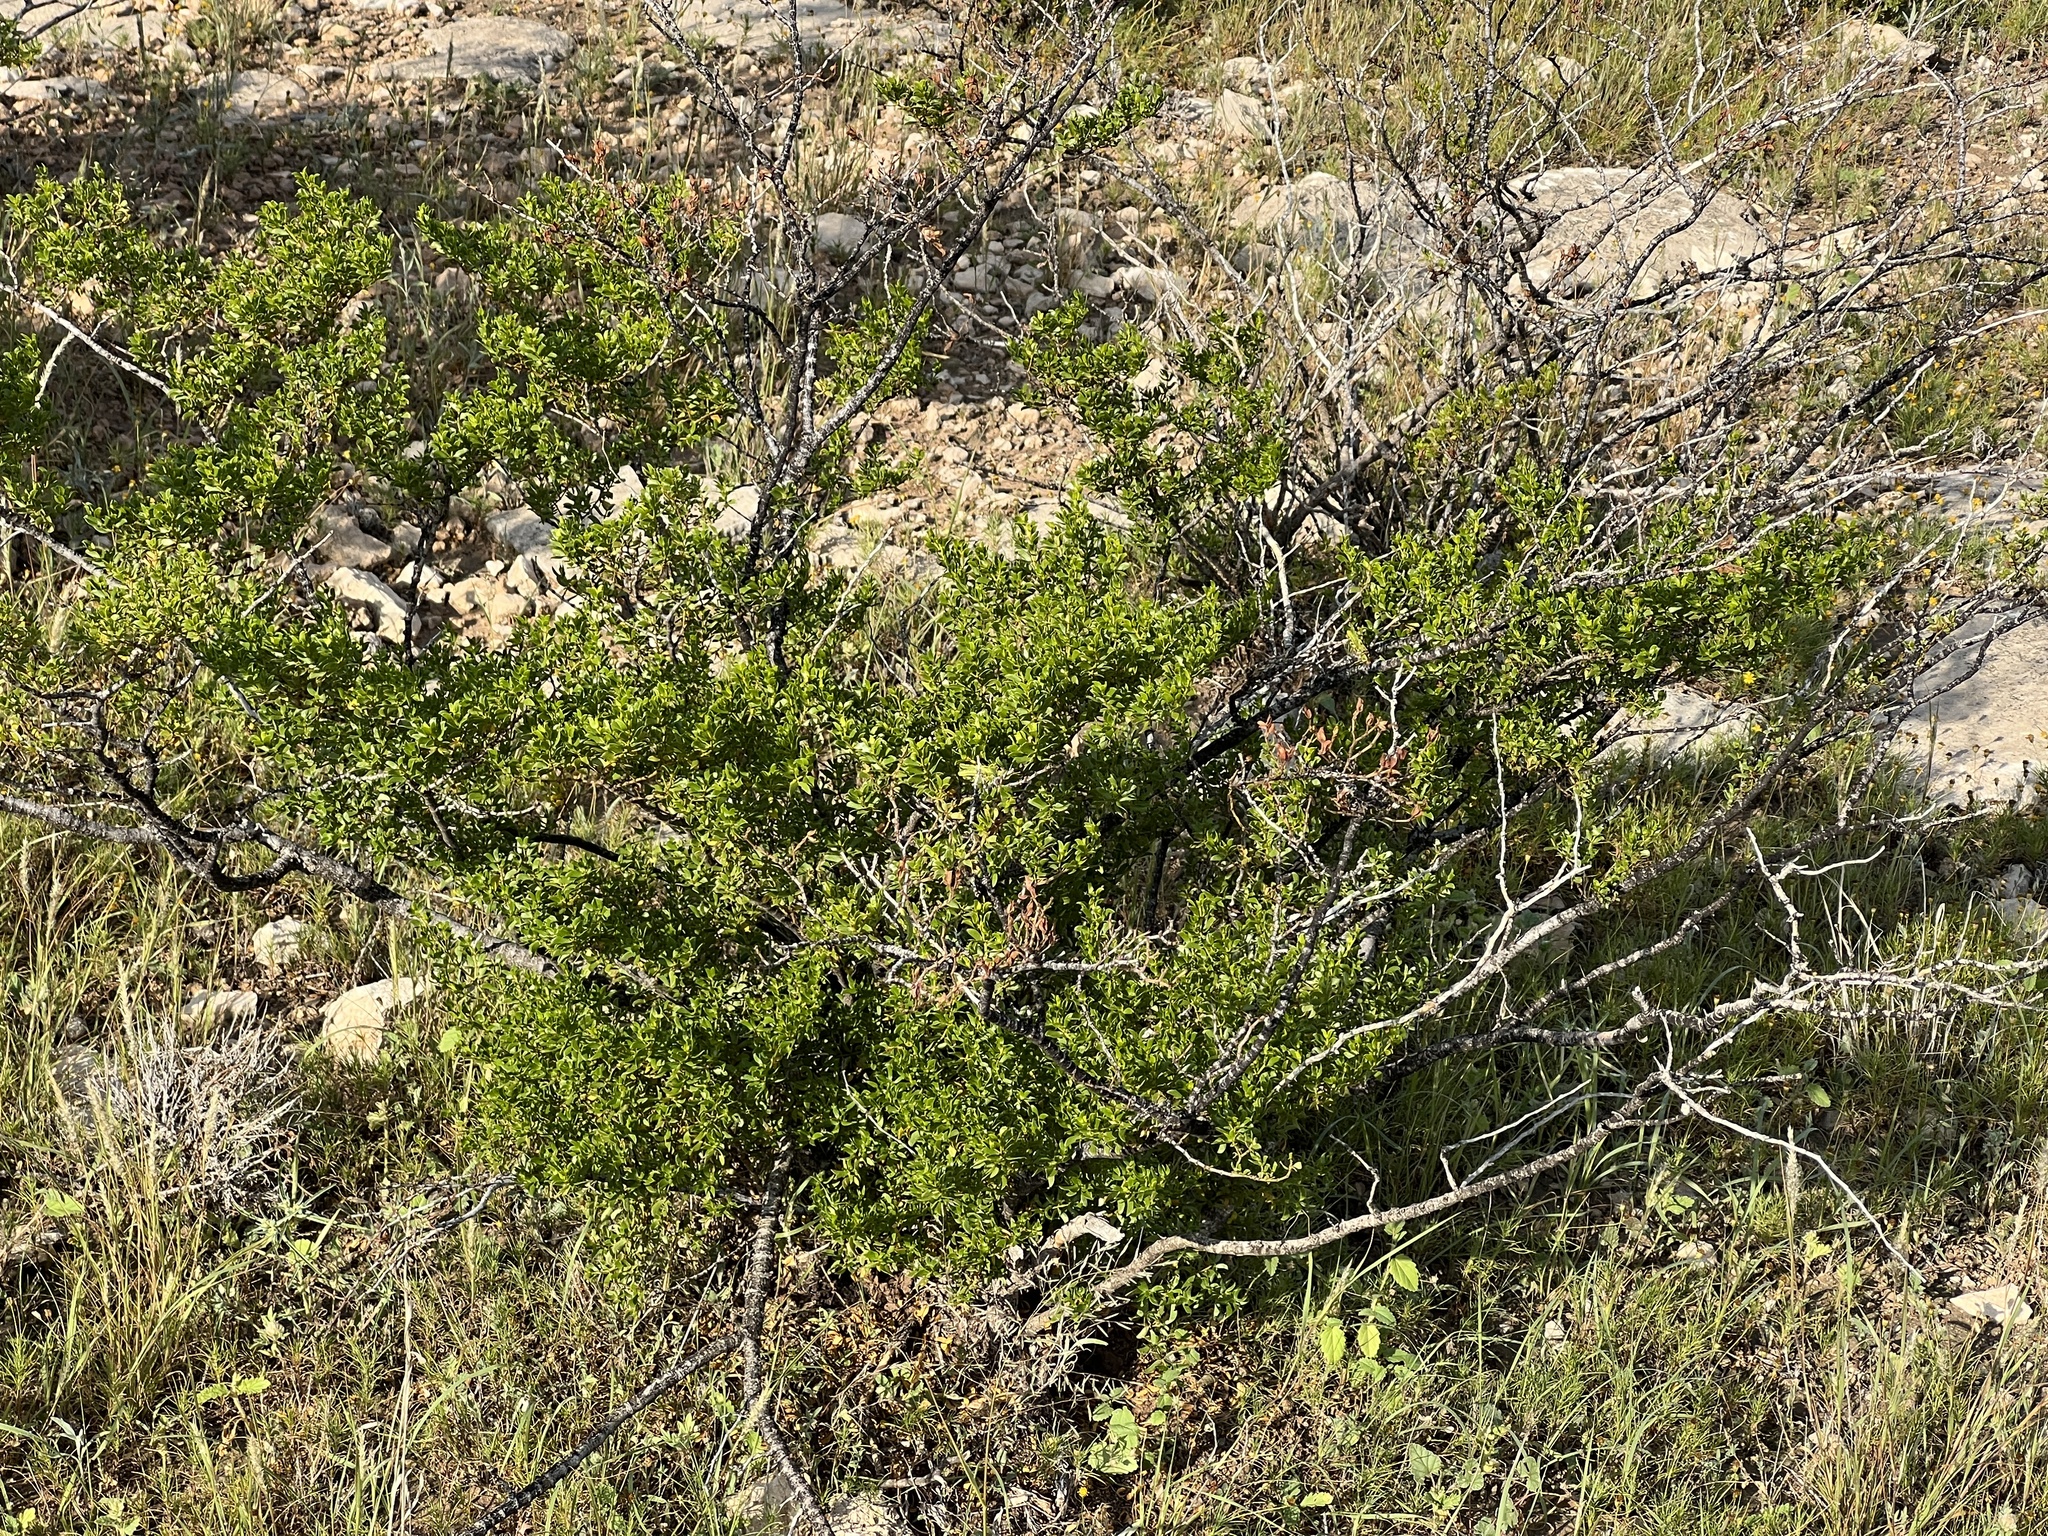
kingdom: Plantae
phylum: Tracheophyta
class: Magnoliopsida
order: Zygophyllales
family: Zygophyllaceae
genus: Larrea
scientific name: Larrea tridentata
